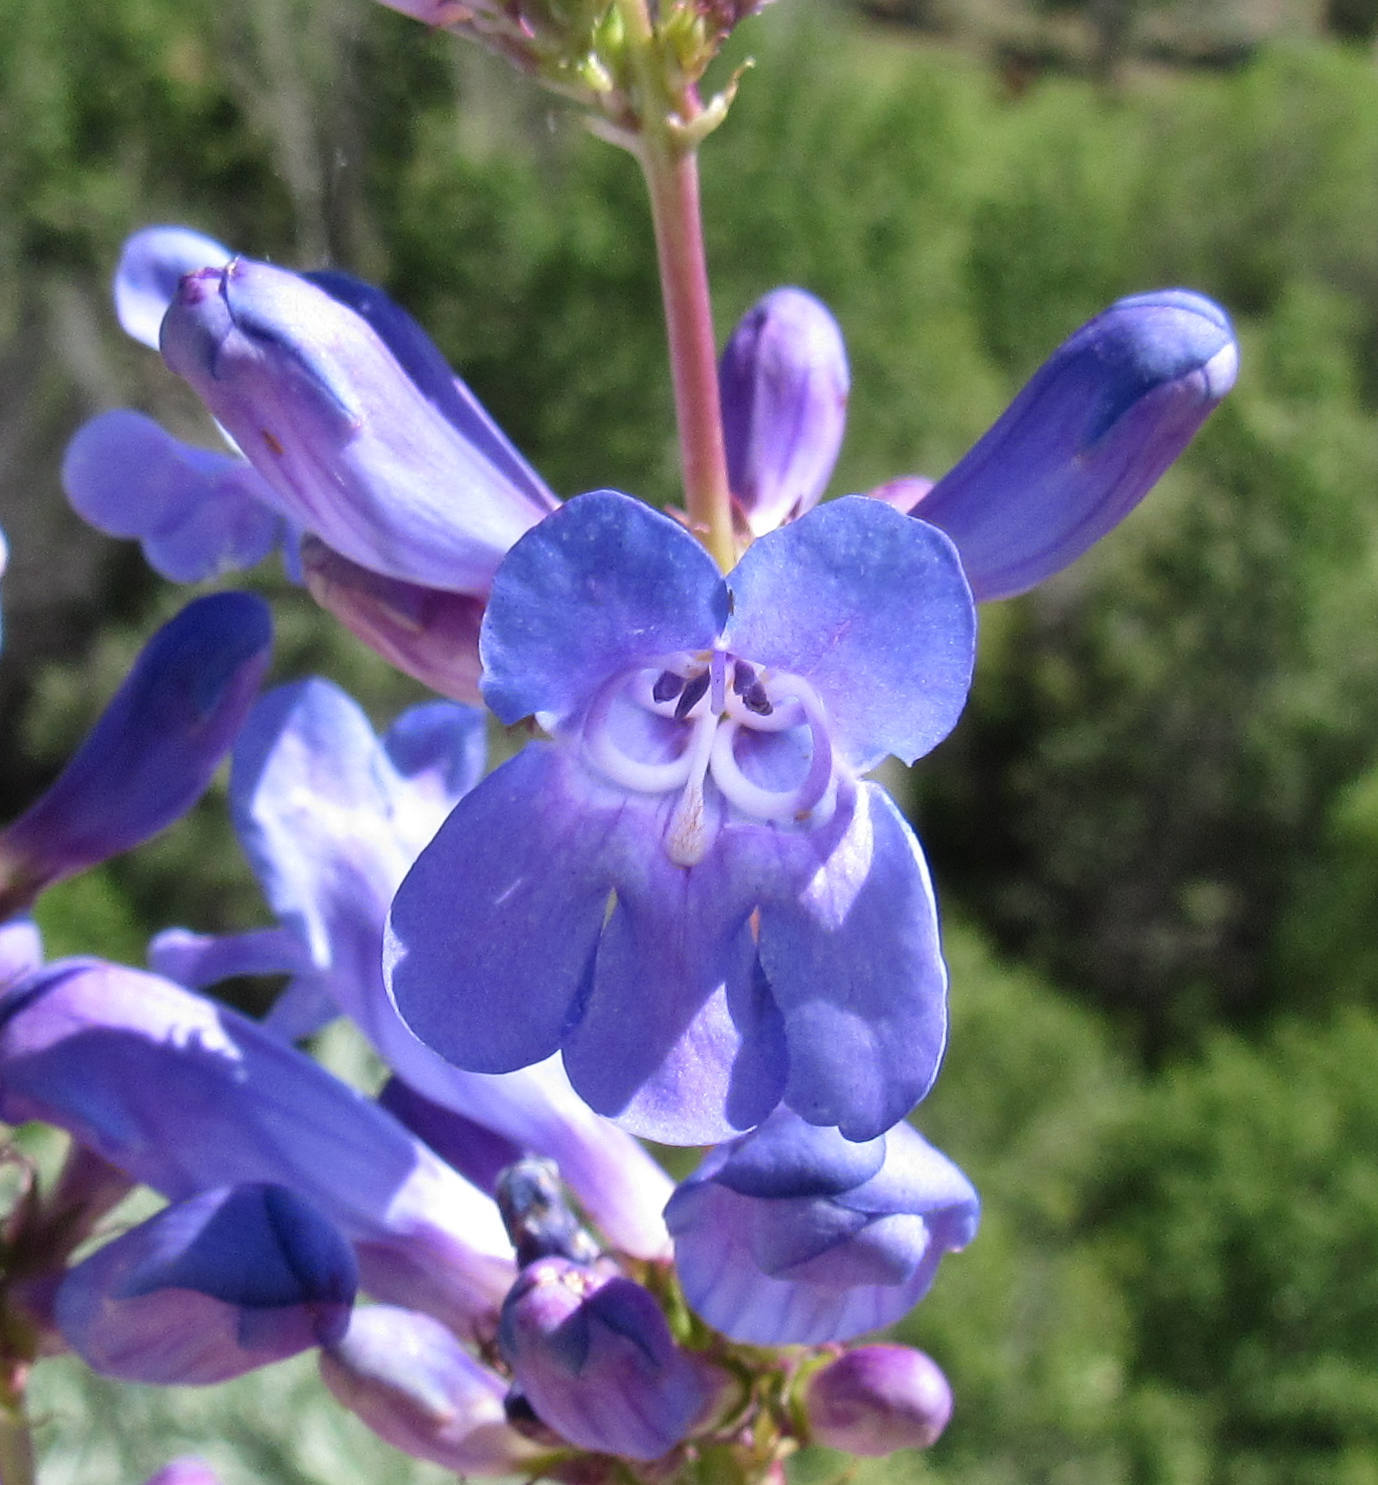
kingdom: Plantae
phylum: Tracheophyta
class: Magnoliopsida
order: Lamiales
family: Plantaginaceae
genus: Penstemon
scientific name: Penstemon cyaneus
